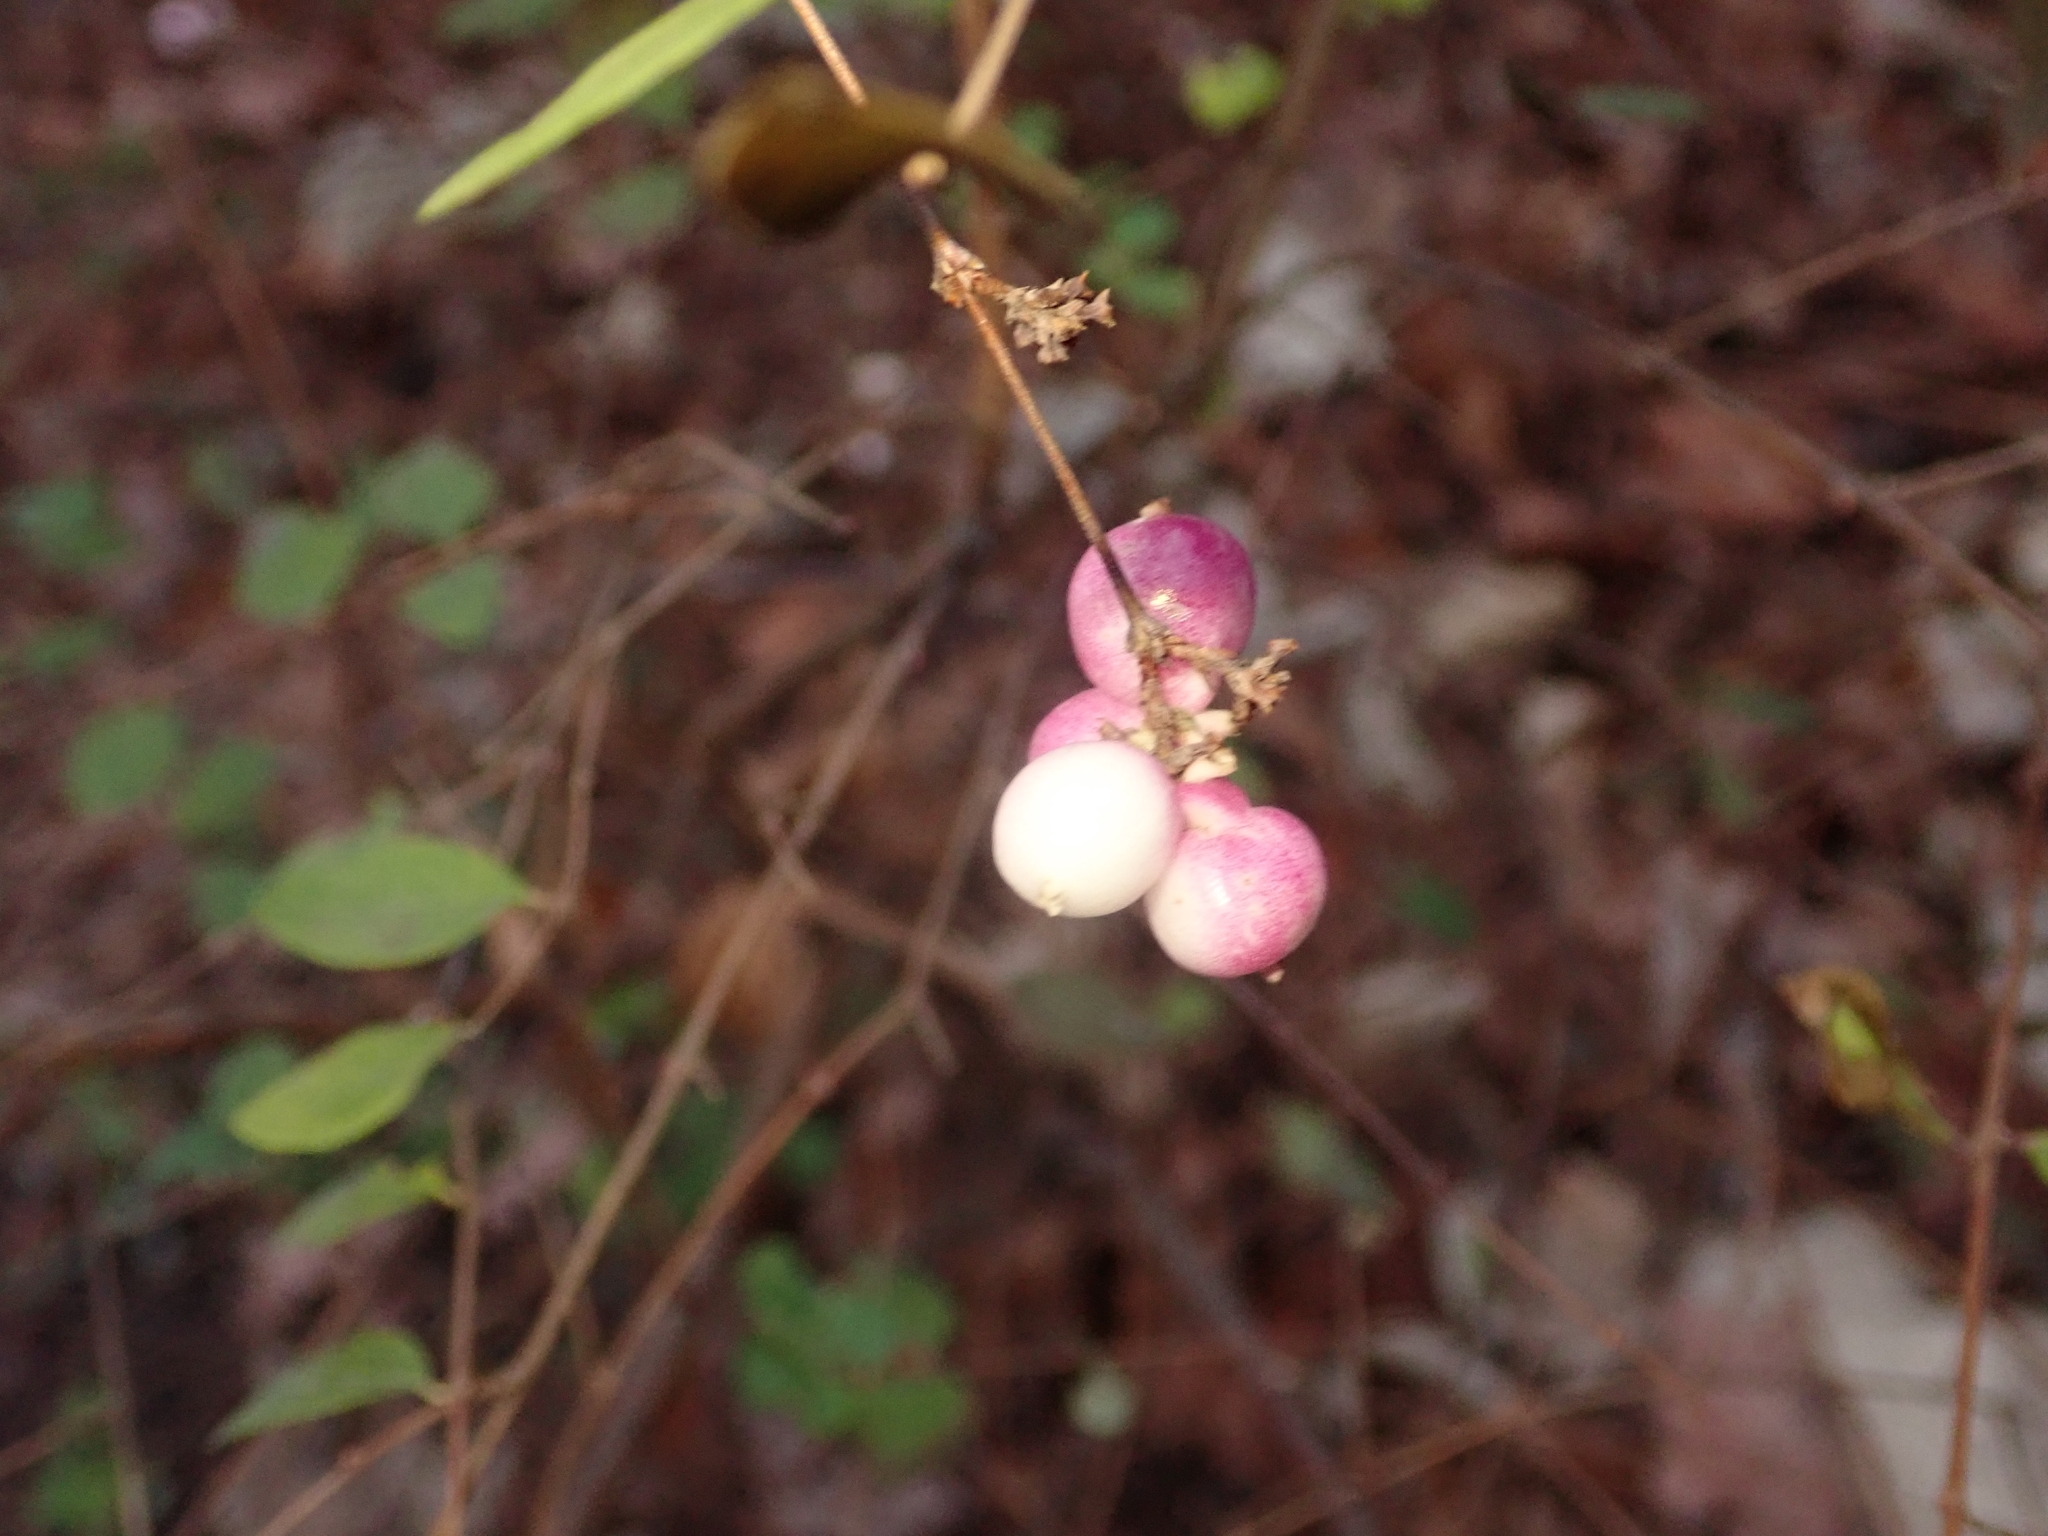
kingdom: Plantae
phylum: Tracheophyta
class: Magnoliopsida
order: Dipsacales
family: Caprifoliaceae
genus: Symphoricarpos
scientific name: Symphoricarpos albus
